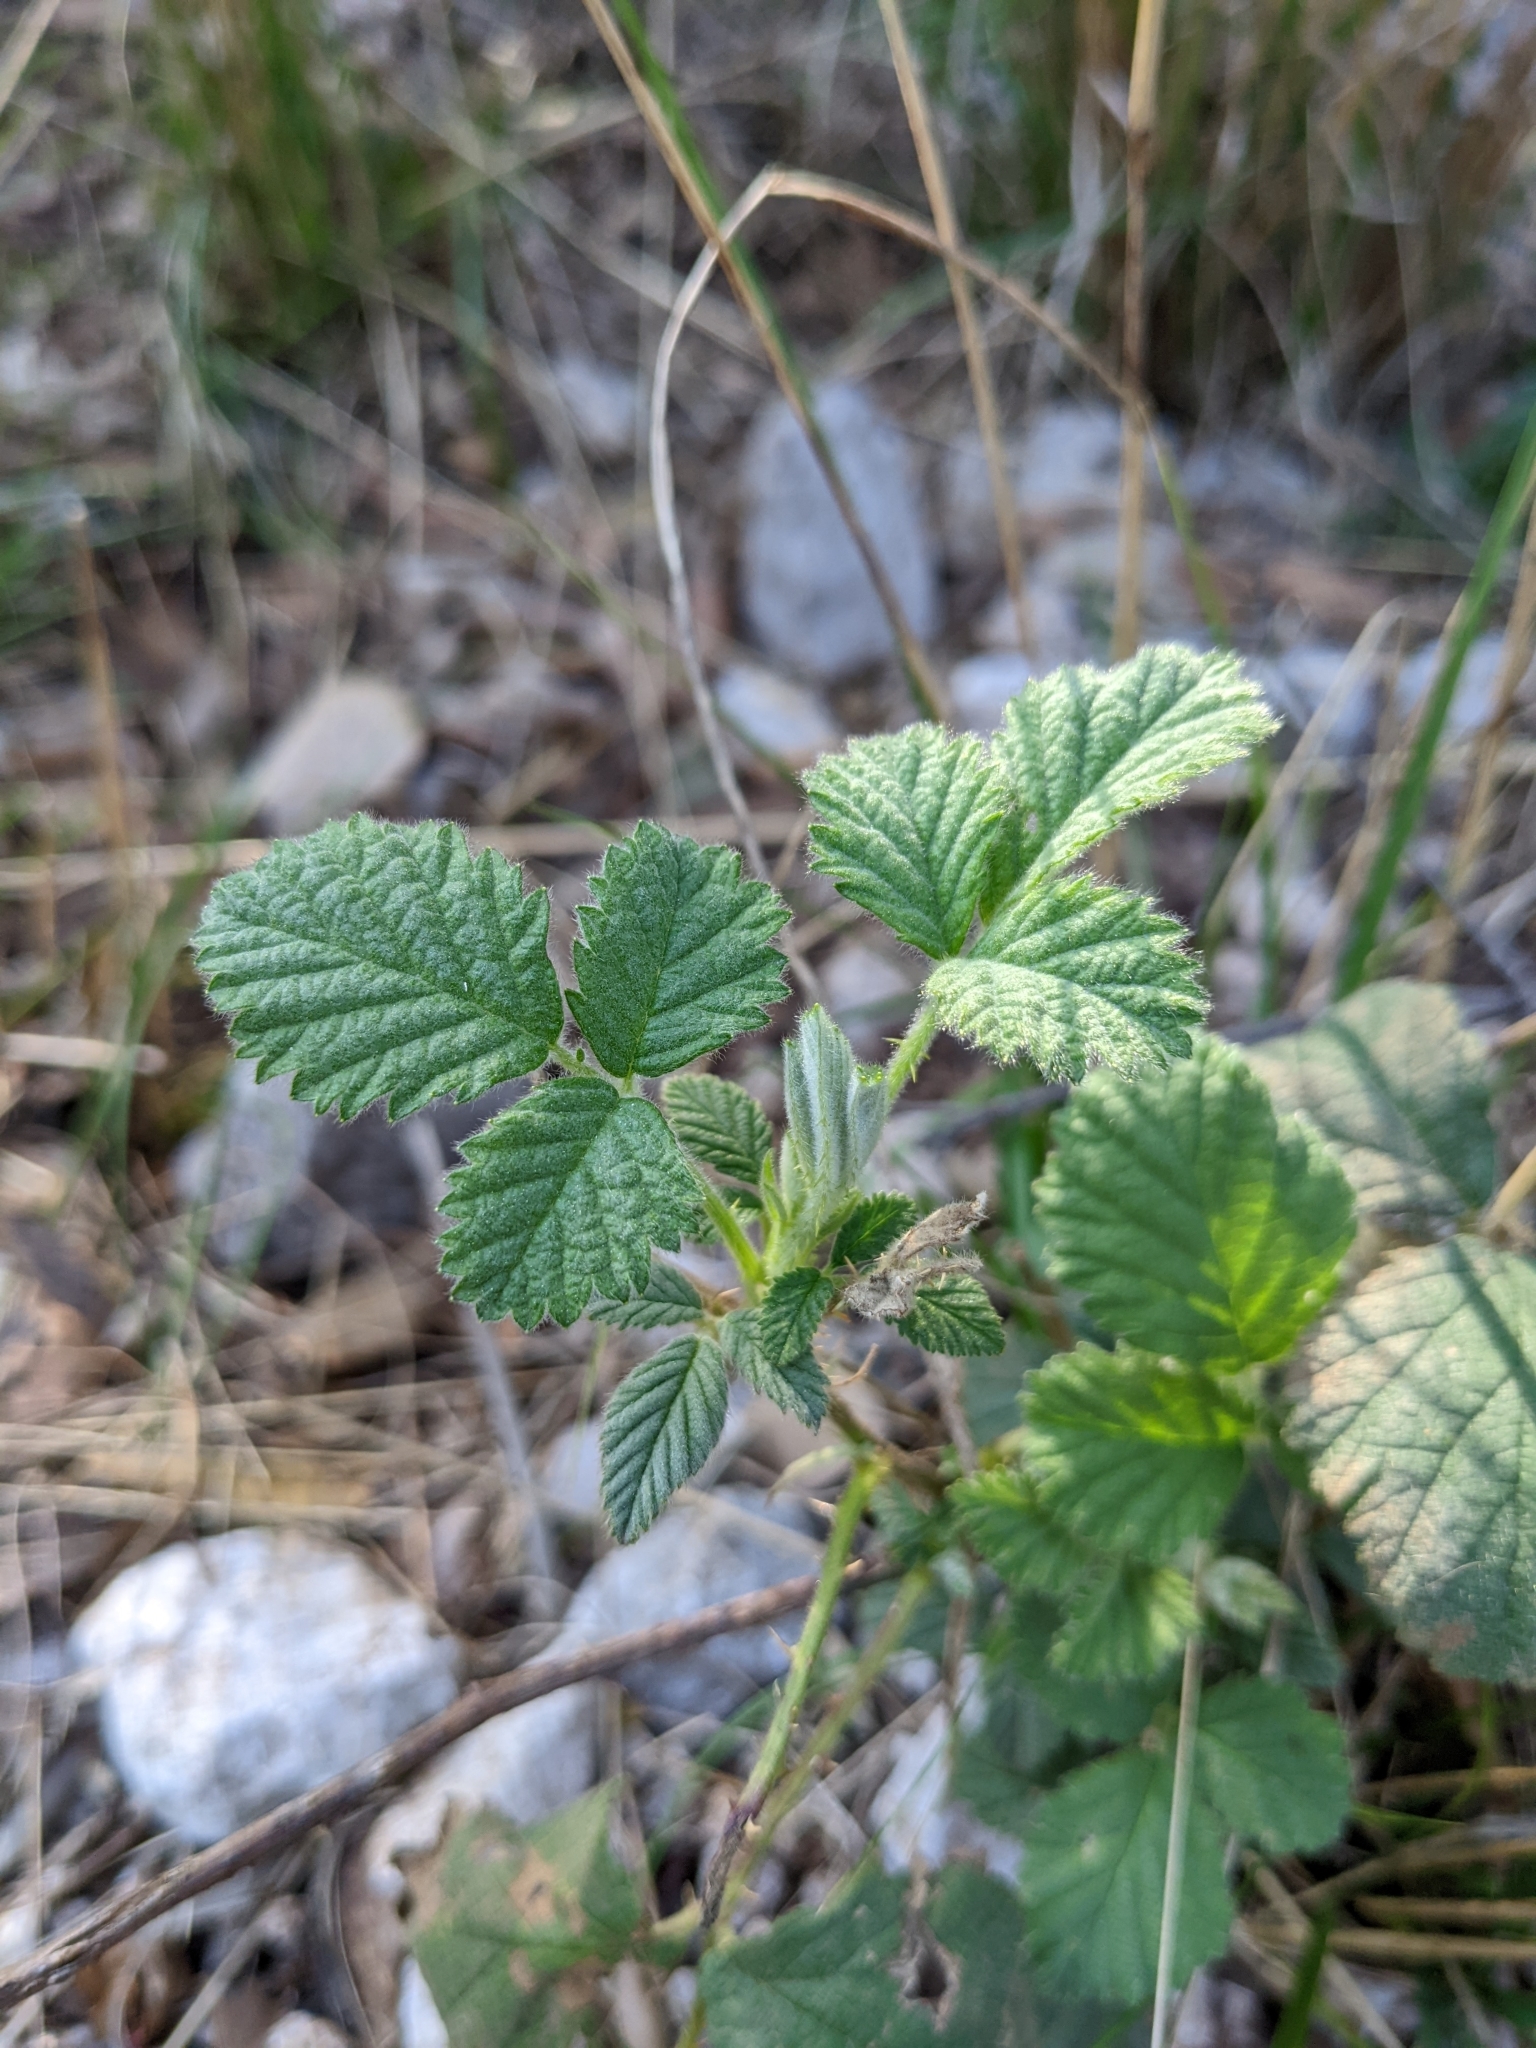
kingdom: Plantae
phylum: Tracheophyta
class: Magnoliopsida
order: Rosales
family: Rosaceae
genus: Rubus
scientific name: Rubus canescens
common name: Wooly blackberry
